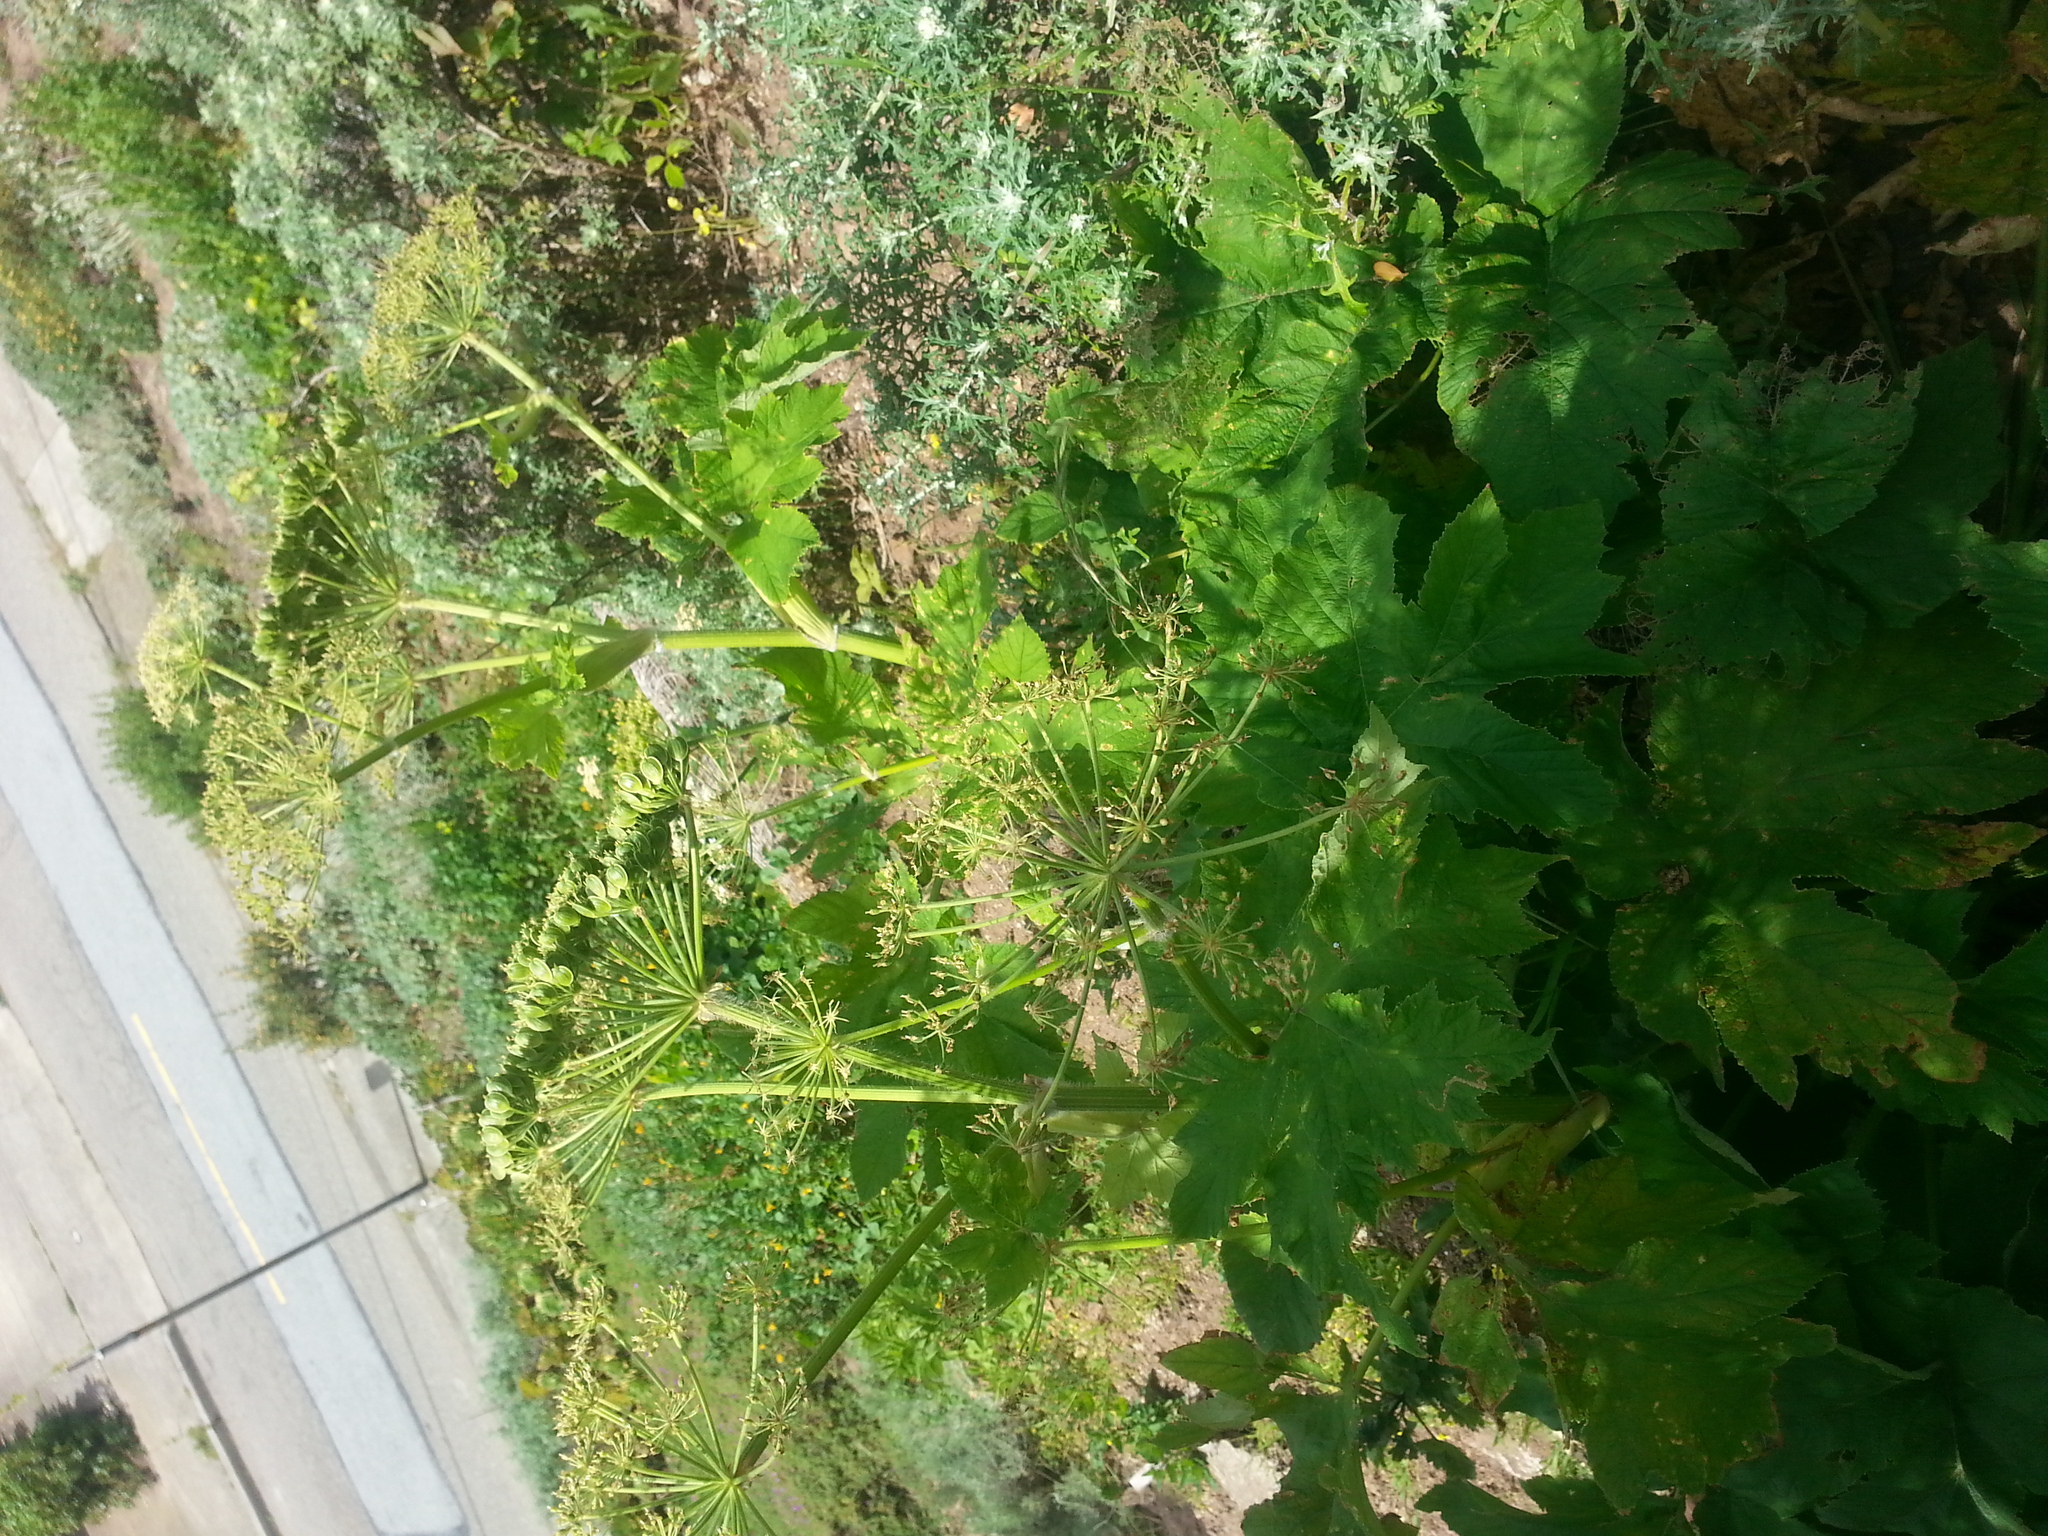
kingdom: Plantae
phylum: Tracheophyta
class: Magnoliopsida
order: Apiales
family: Apiaceae
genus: Heracleum
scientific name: Heracleum maximum
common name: American cow parsnip
